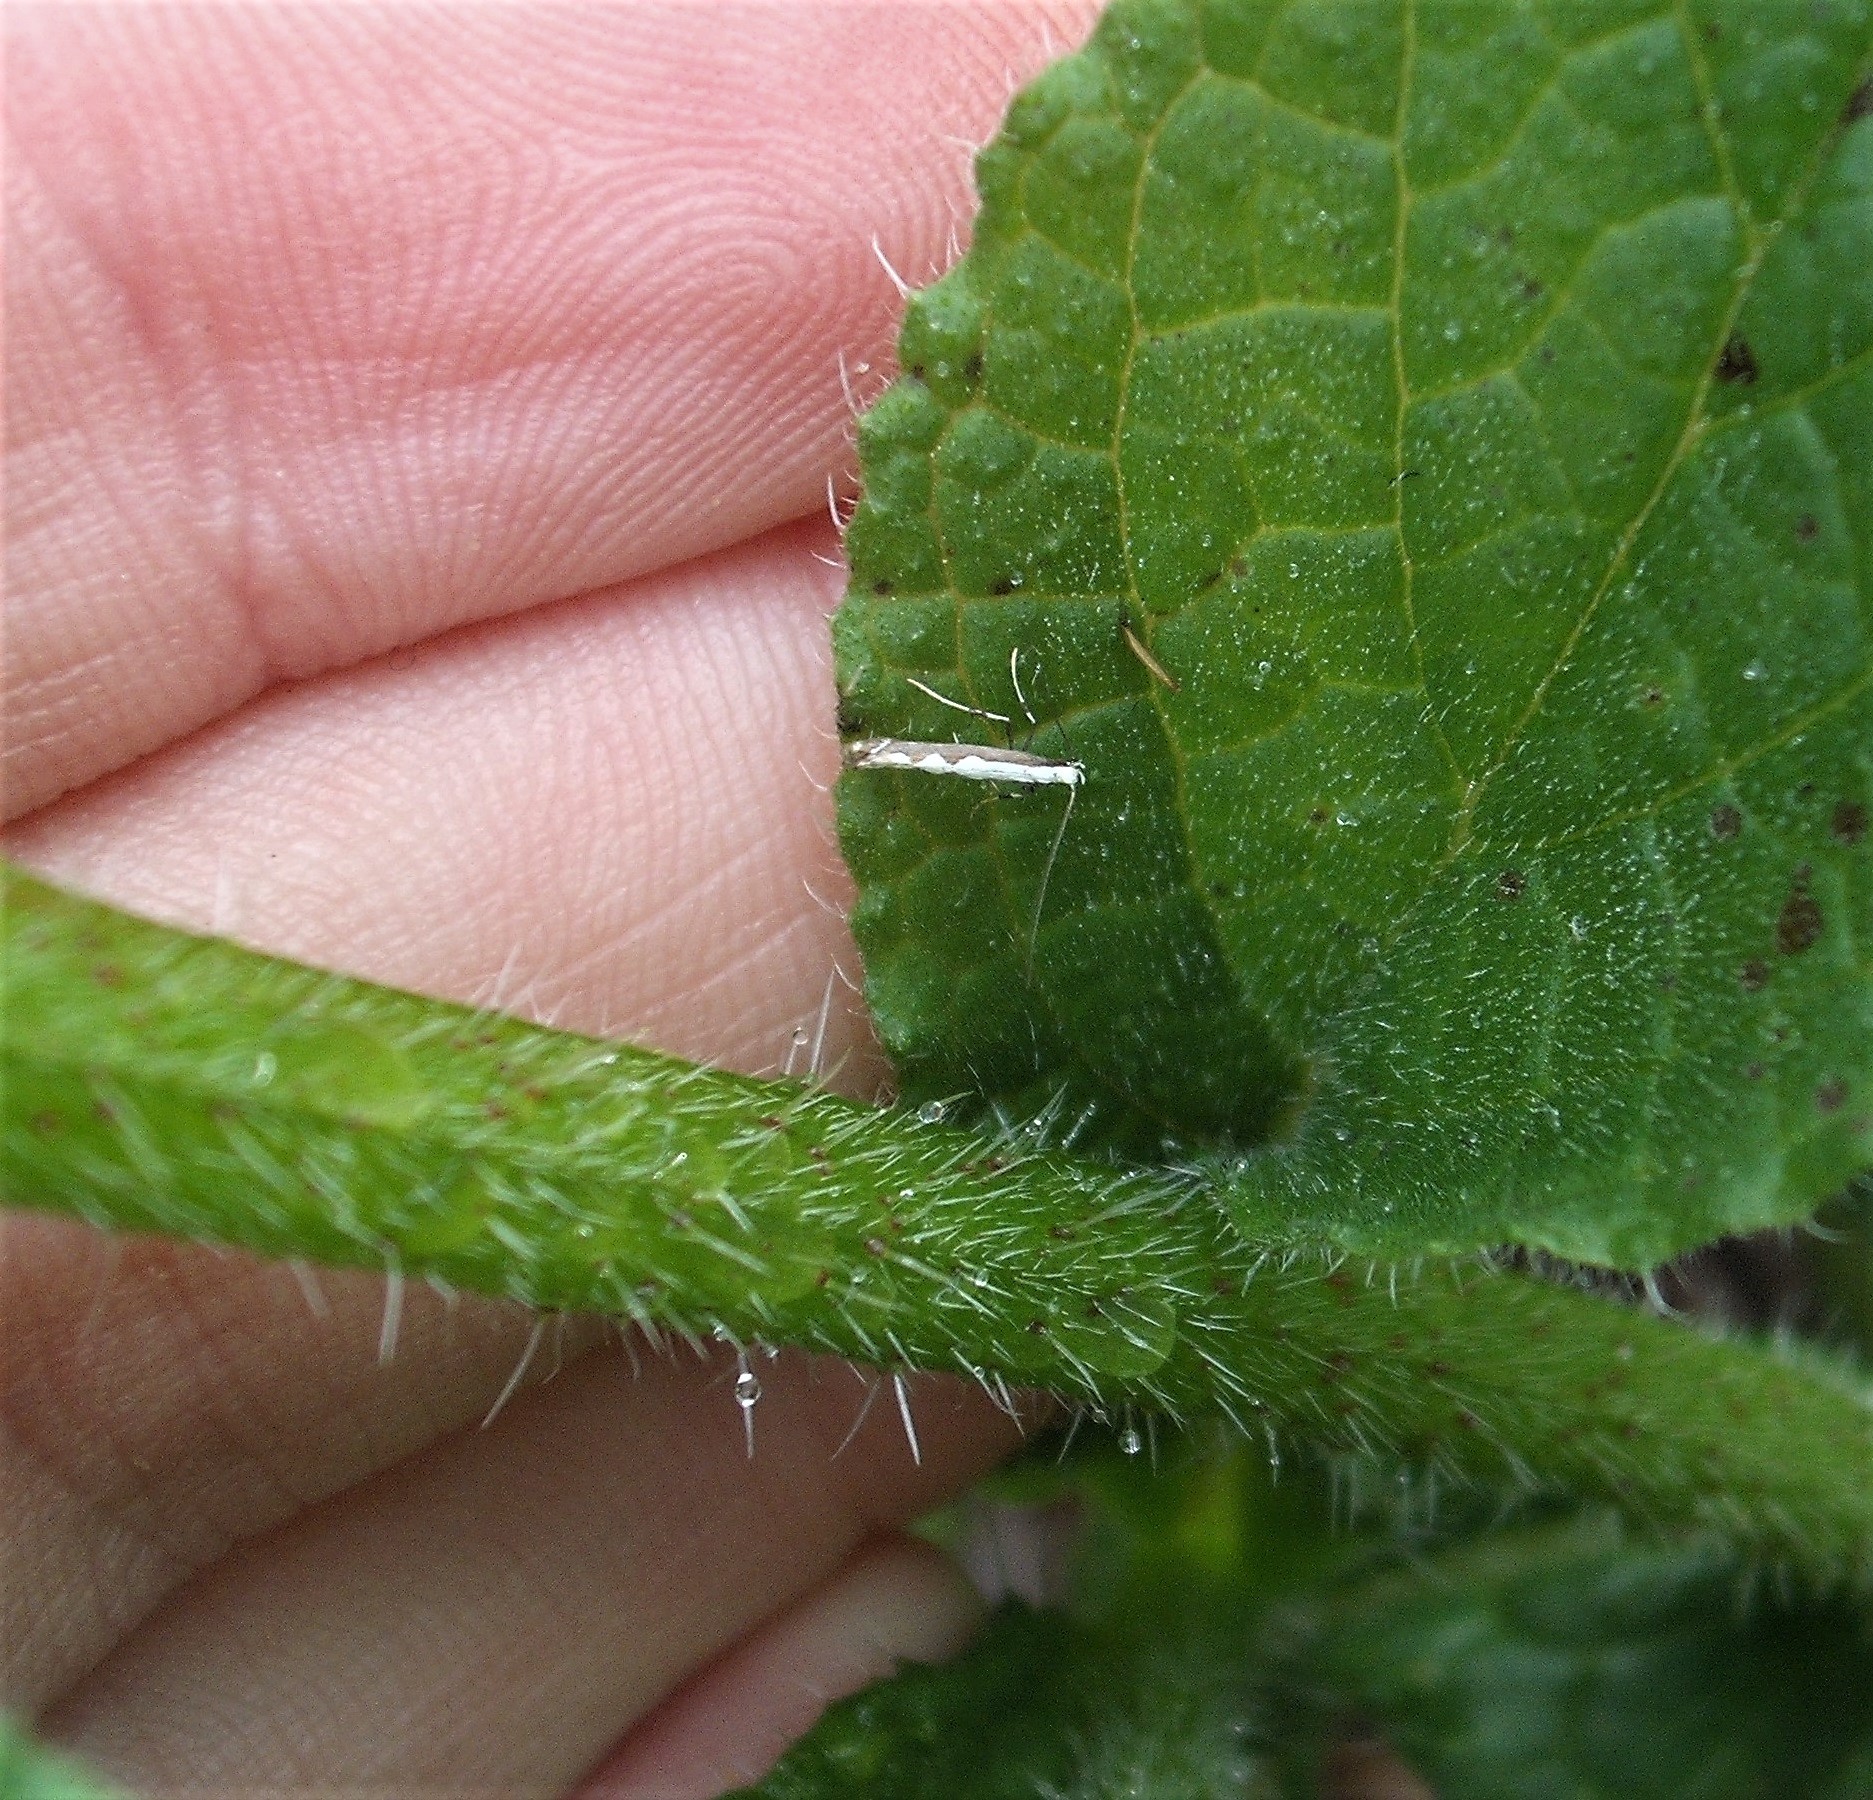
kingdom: Animalia
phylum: Arthropoda
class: Insecta
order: Lepidoptera
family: Gracillariidae
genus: Dialectica
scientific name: Dialectica scalariella
